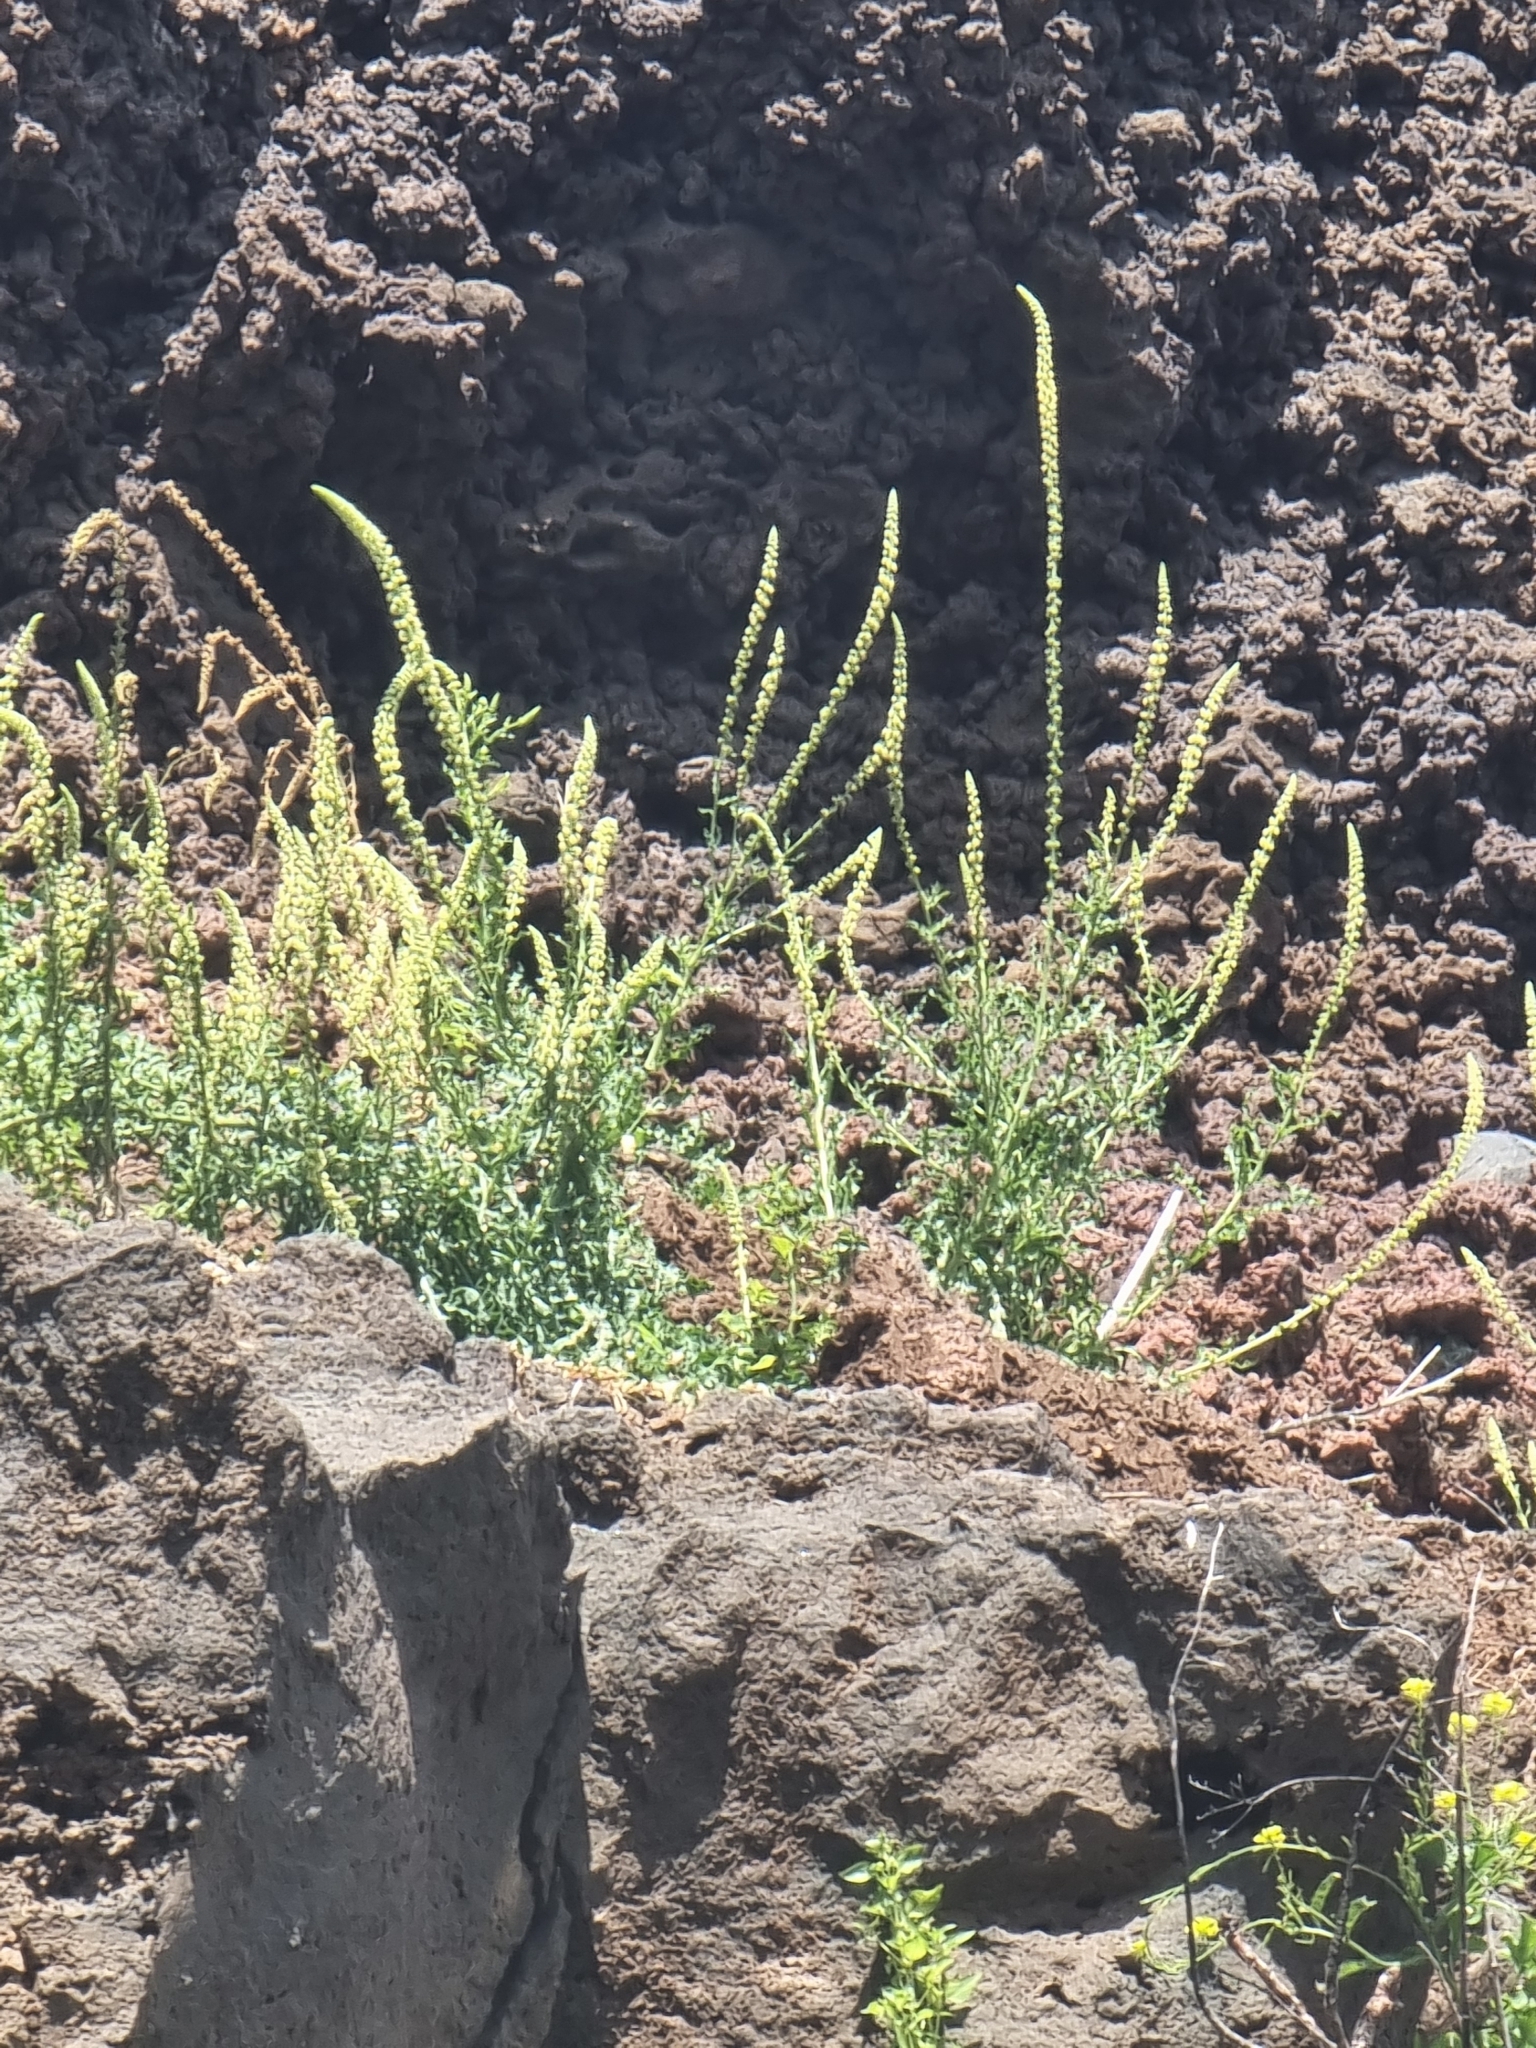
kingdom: Plantae
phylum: Tracheophyta
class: Magnoliopsida
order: Brassicales
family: Resedaceae
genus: Reseda
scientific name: Reseda luteola
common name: Weld
